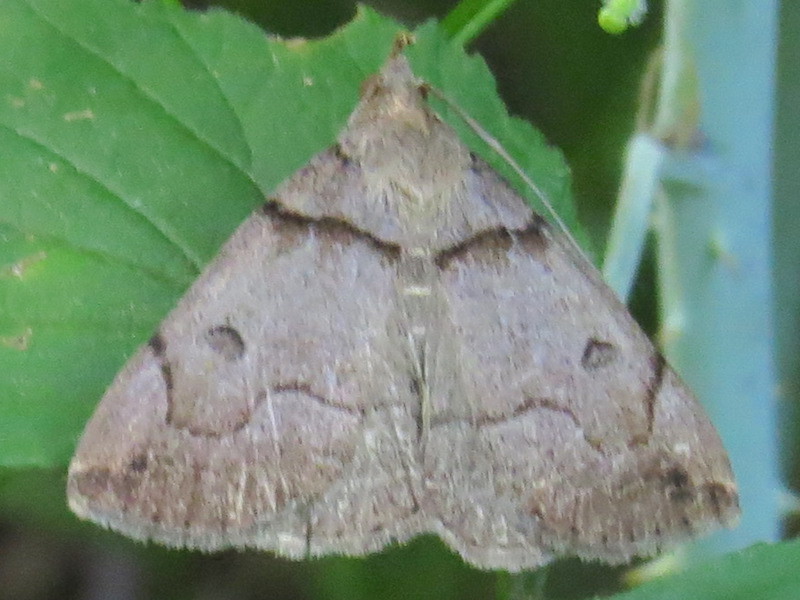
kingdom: Animalia
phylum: Arthropoda
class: Insecta
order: Lepidoptera
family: Erebidae
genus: Zanclognatha
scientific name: Zanclognatha laevigata
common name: Variable fan-foot
